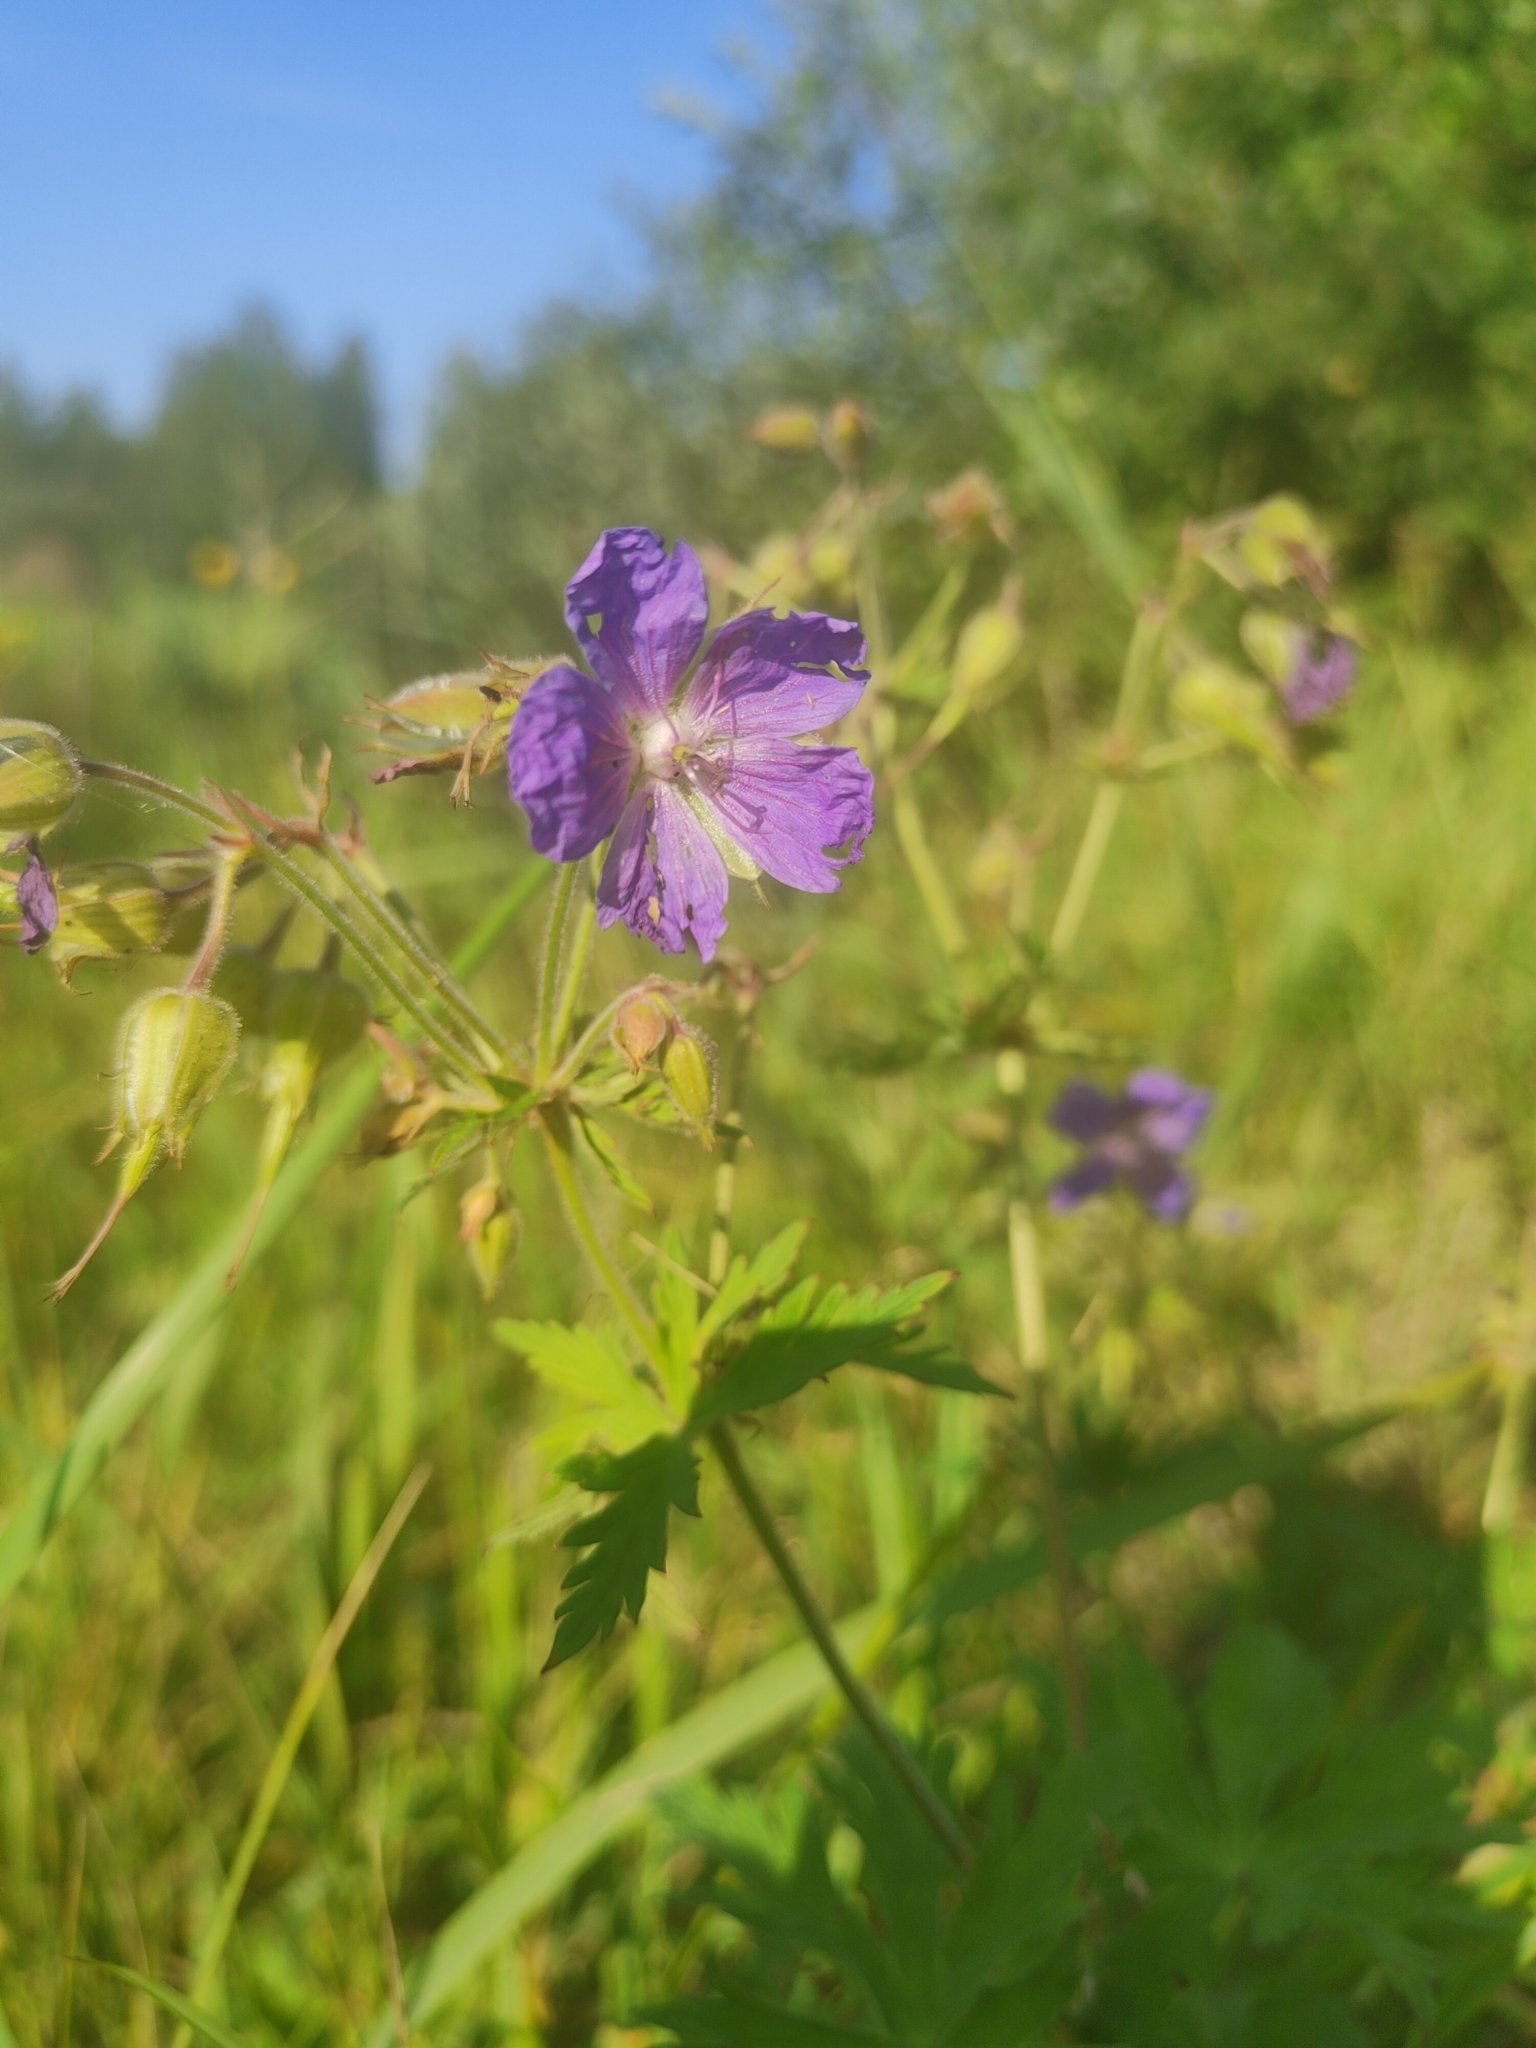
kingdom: Plantae
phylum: Tracheophyta
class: Magnoliopsida
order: Geraniales
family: Geraniaceae
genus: Geranium
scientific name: Geranium pratense
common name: Meadow crane's-bill
